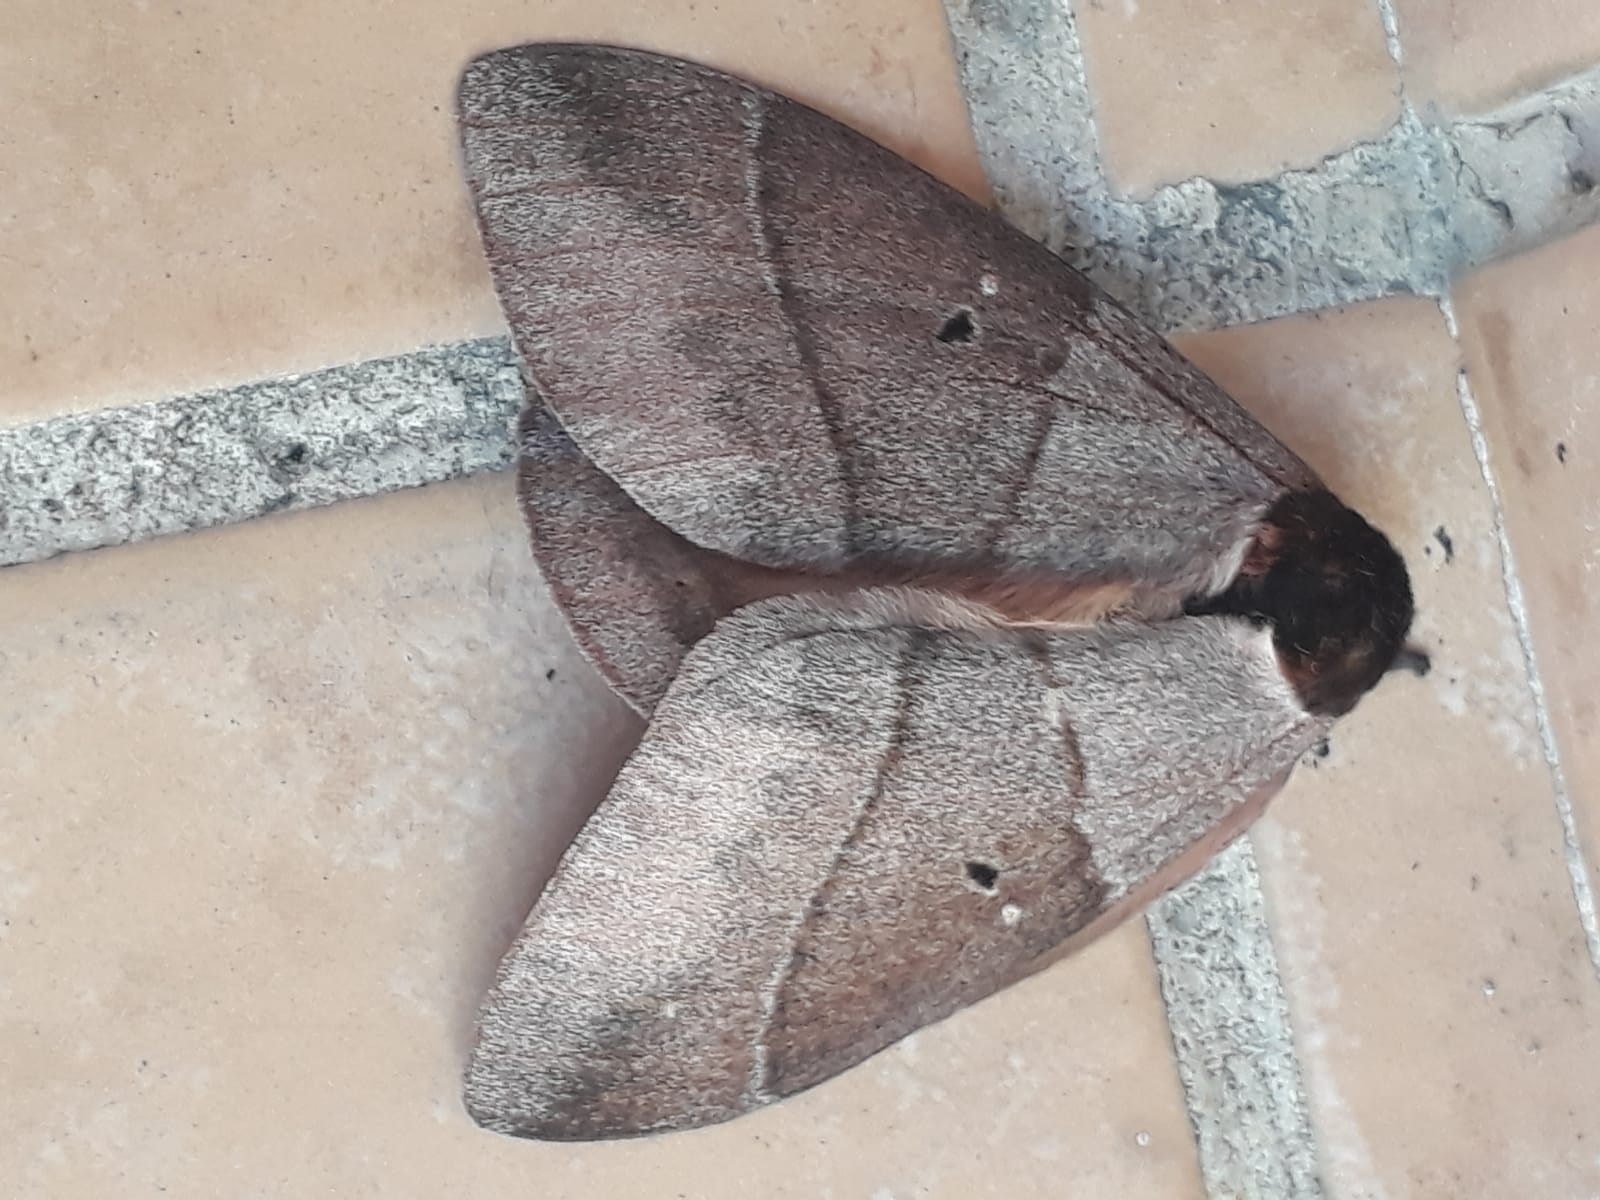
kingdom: Animalia
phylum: Arthropoda
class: Insecta
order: Lepidoptera
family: Saturniidae
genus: Dirphia
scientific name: Dirphia moderata
